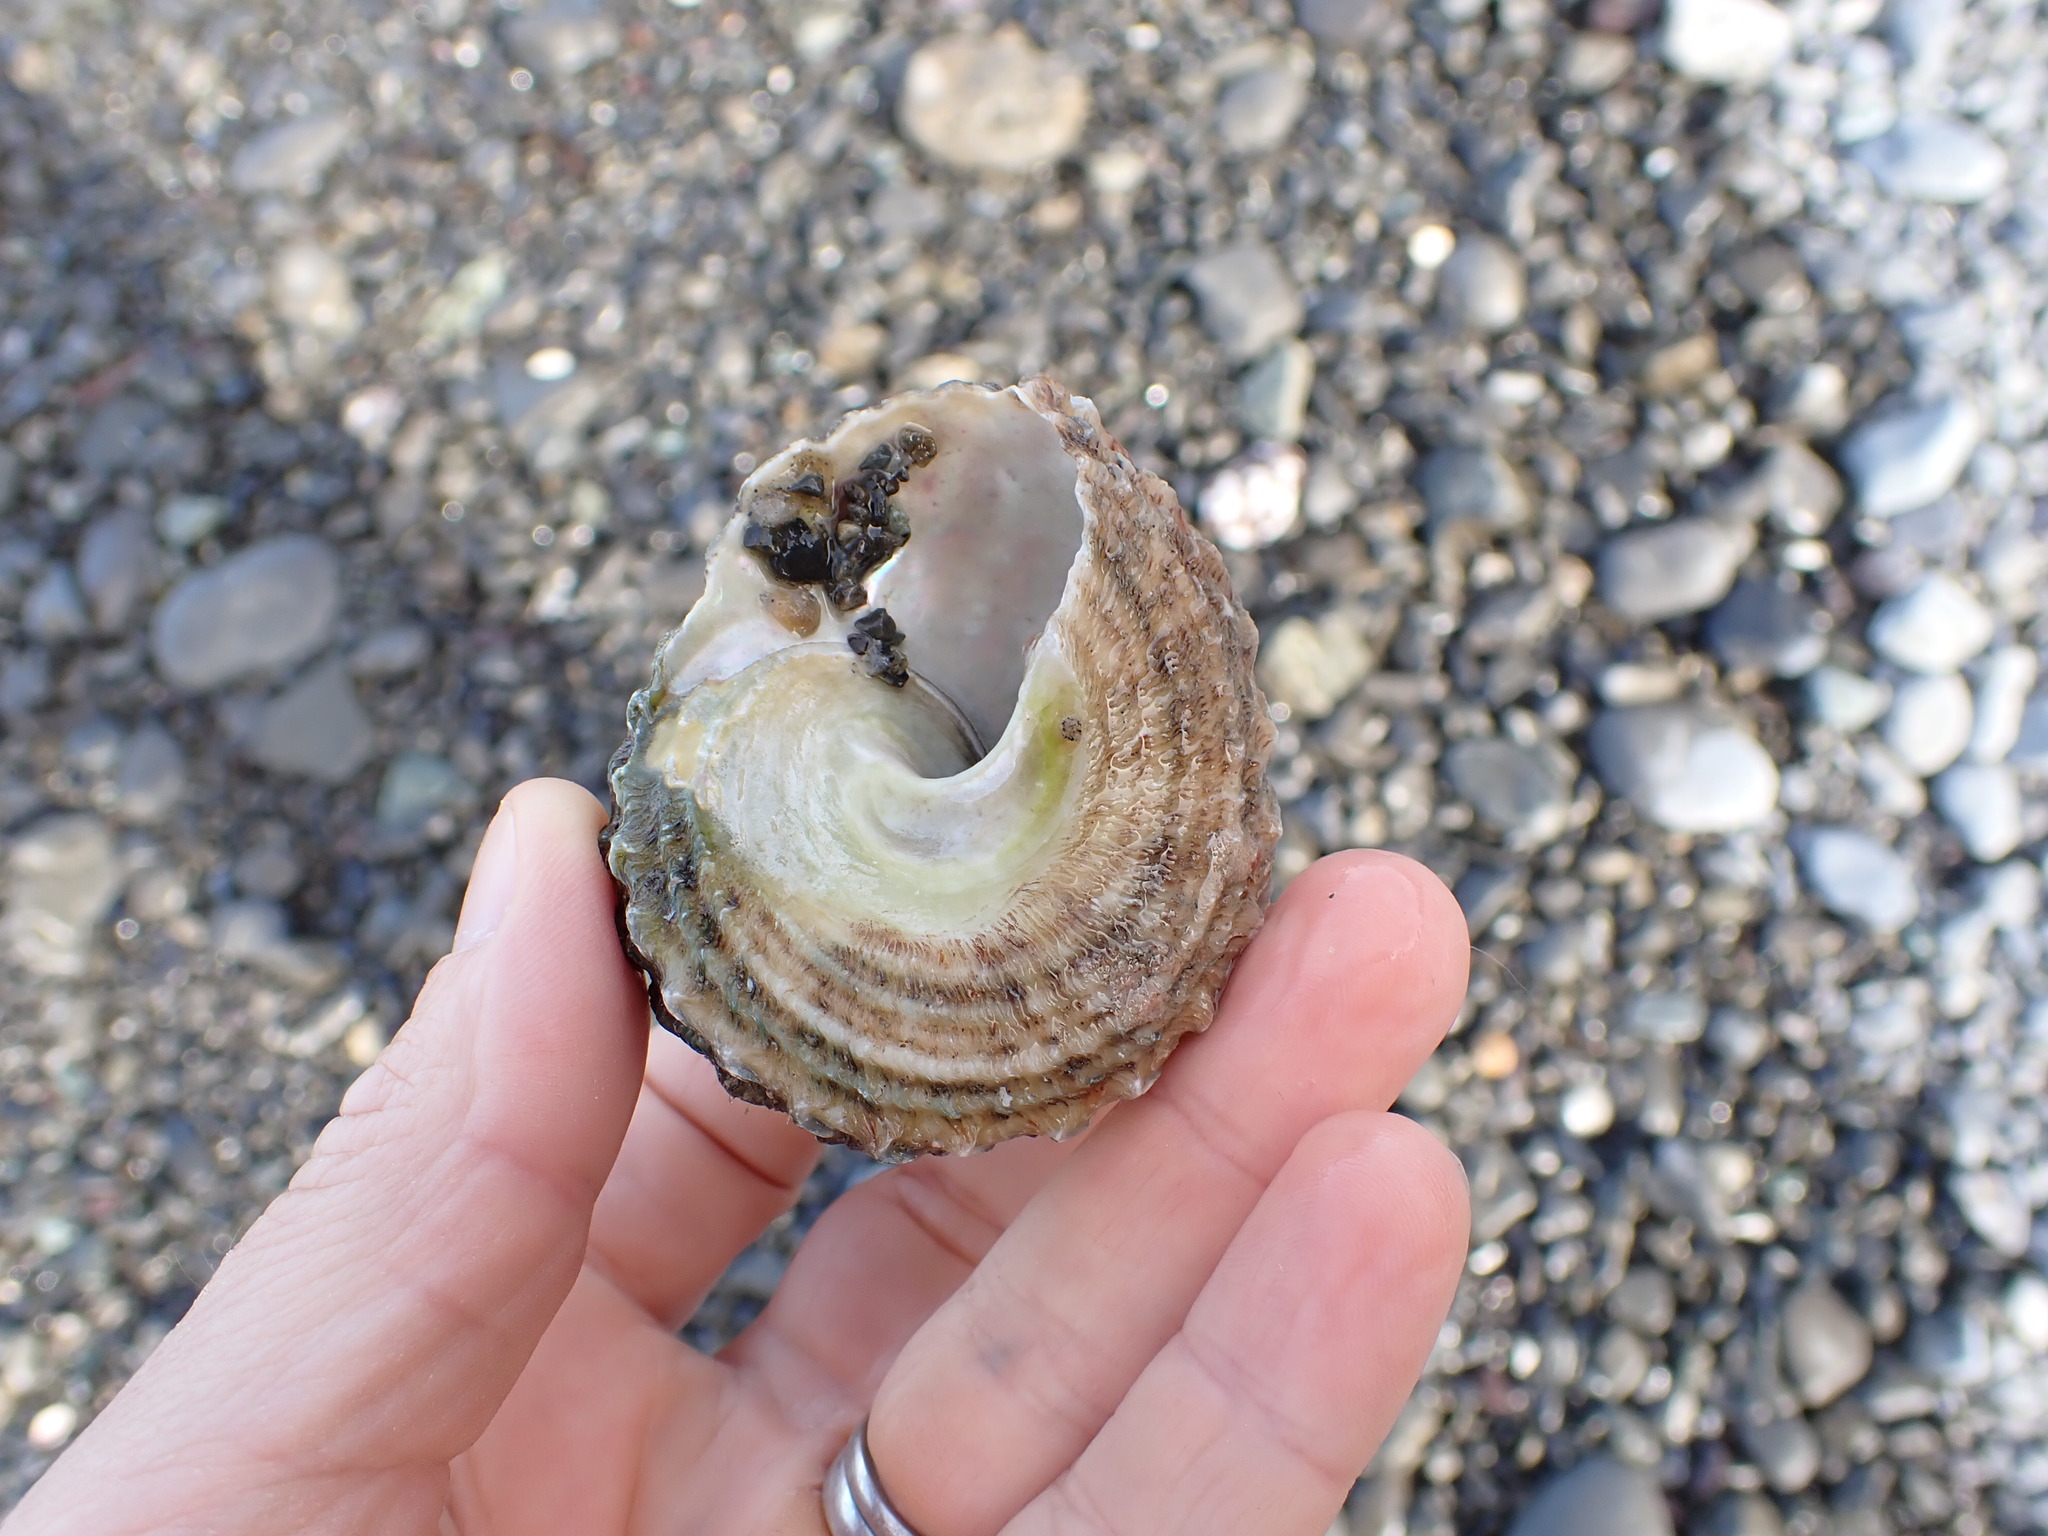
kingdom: Animalia
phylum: Mollusca
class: Gastropoda
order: Trochida
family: Turbinidae
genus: Cookia
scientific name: Cookia sulcata
